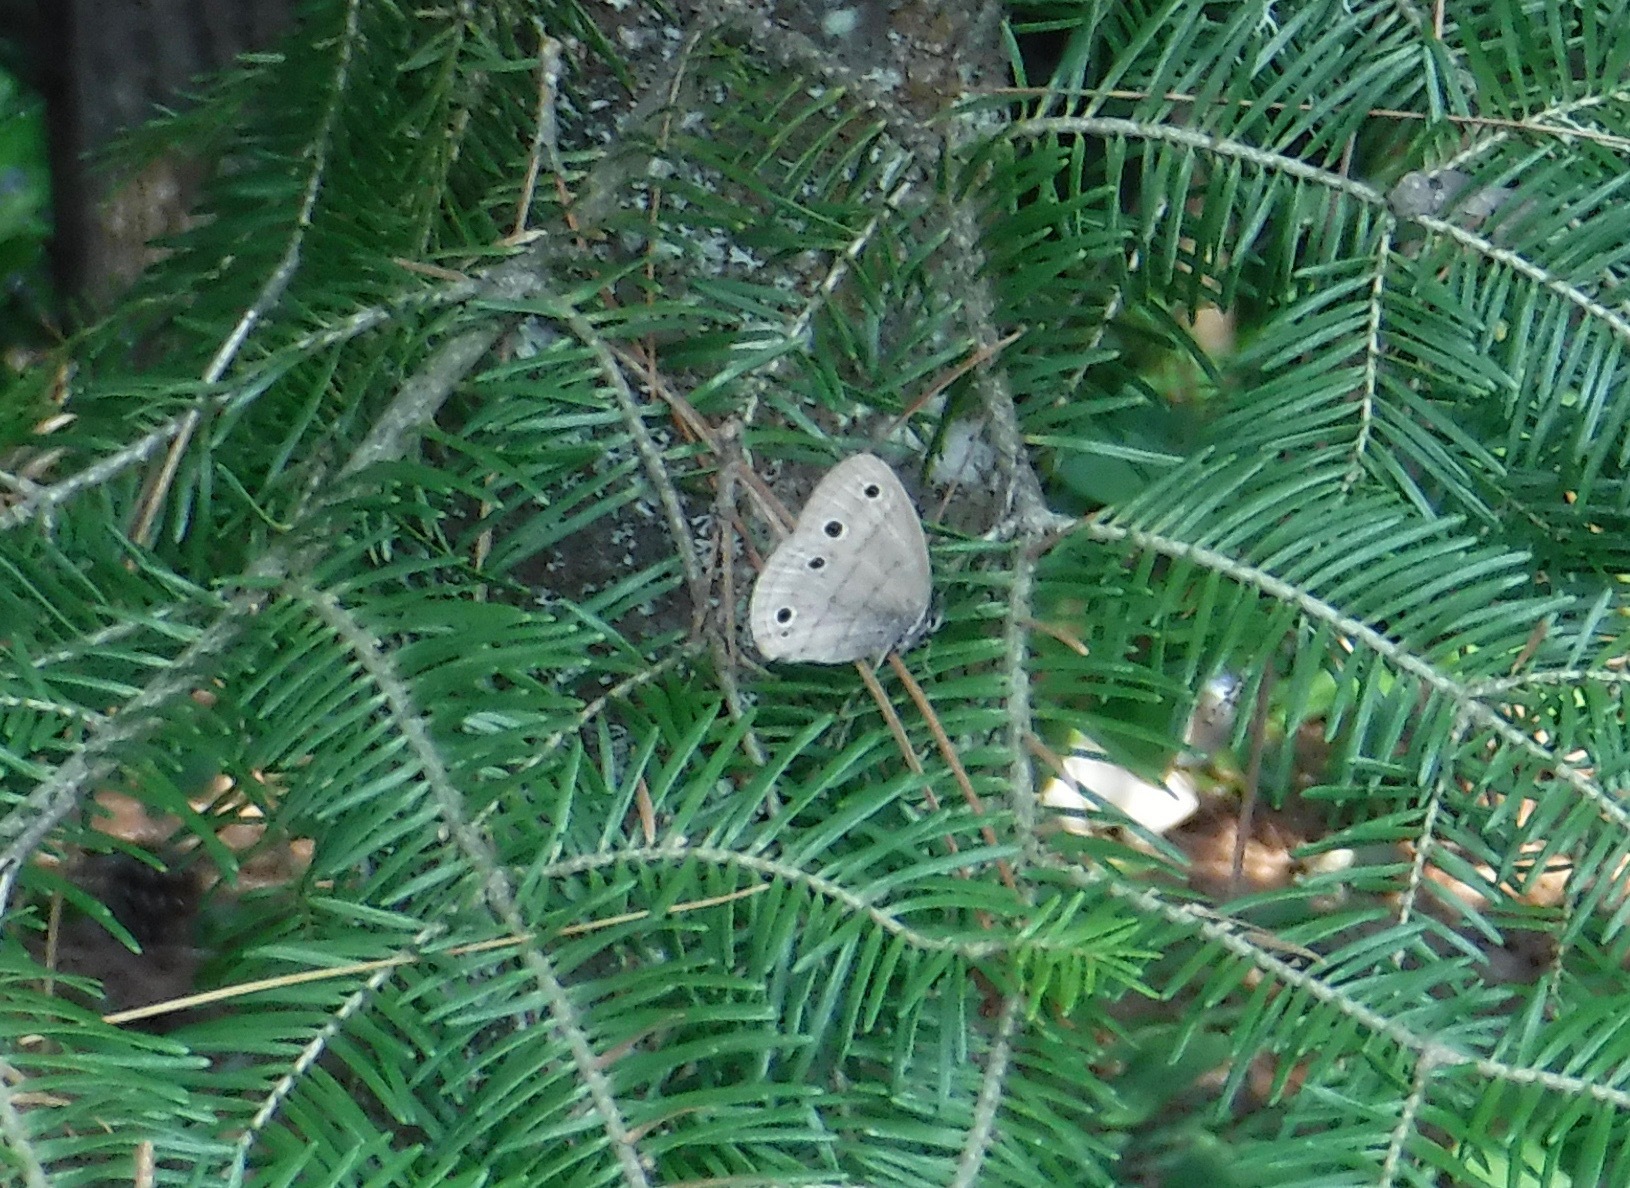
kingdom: Animalia
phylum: Arthropoda
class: Insecta
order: Lepidoptera
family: Nymphalidae
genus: Euptychia
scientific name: Euptychia cymela
